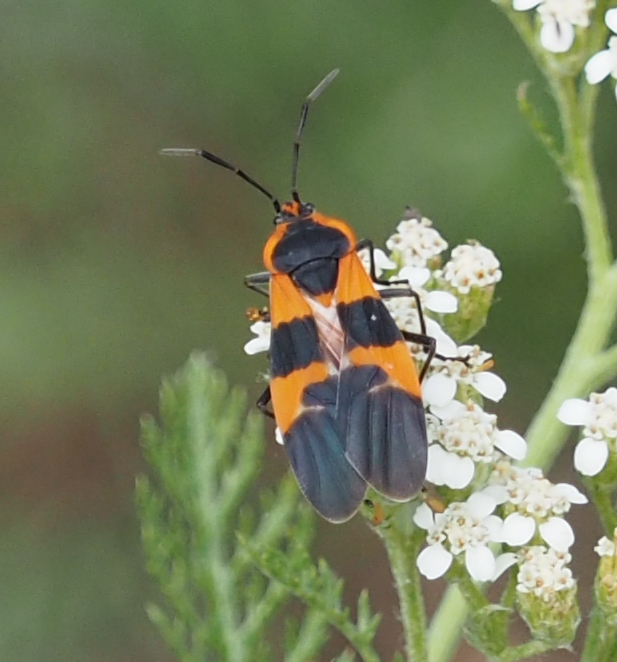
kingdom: Animalia
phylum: Arthropoda
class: Insecta
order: Hemiptera
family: Lygaeidae
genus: Oncopeltus
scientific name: Oncopeltus fasciatus
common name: Large milkweed bug
